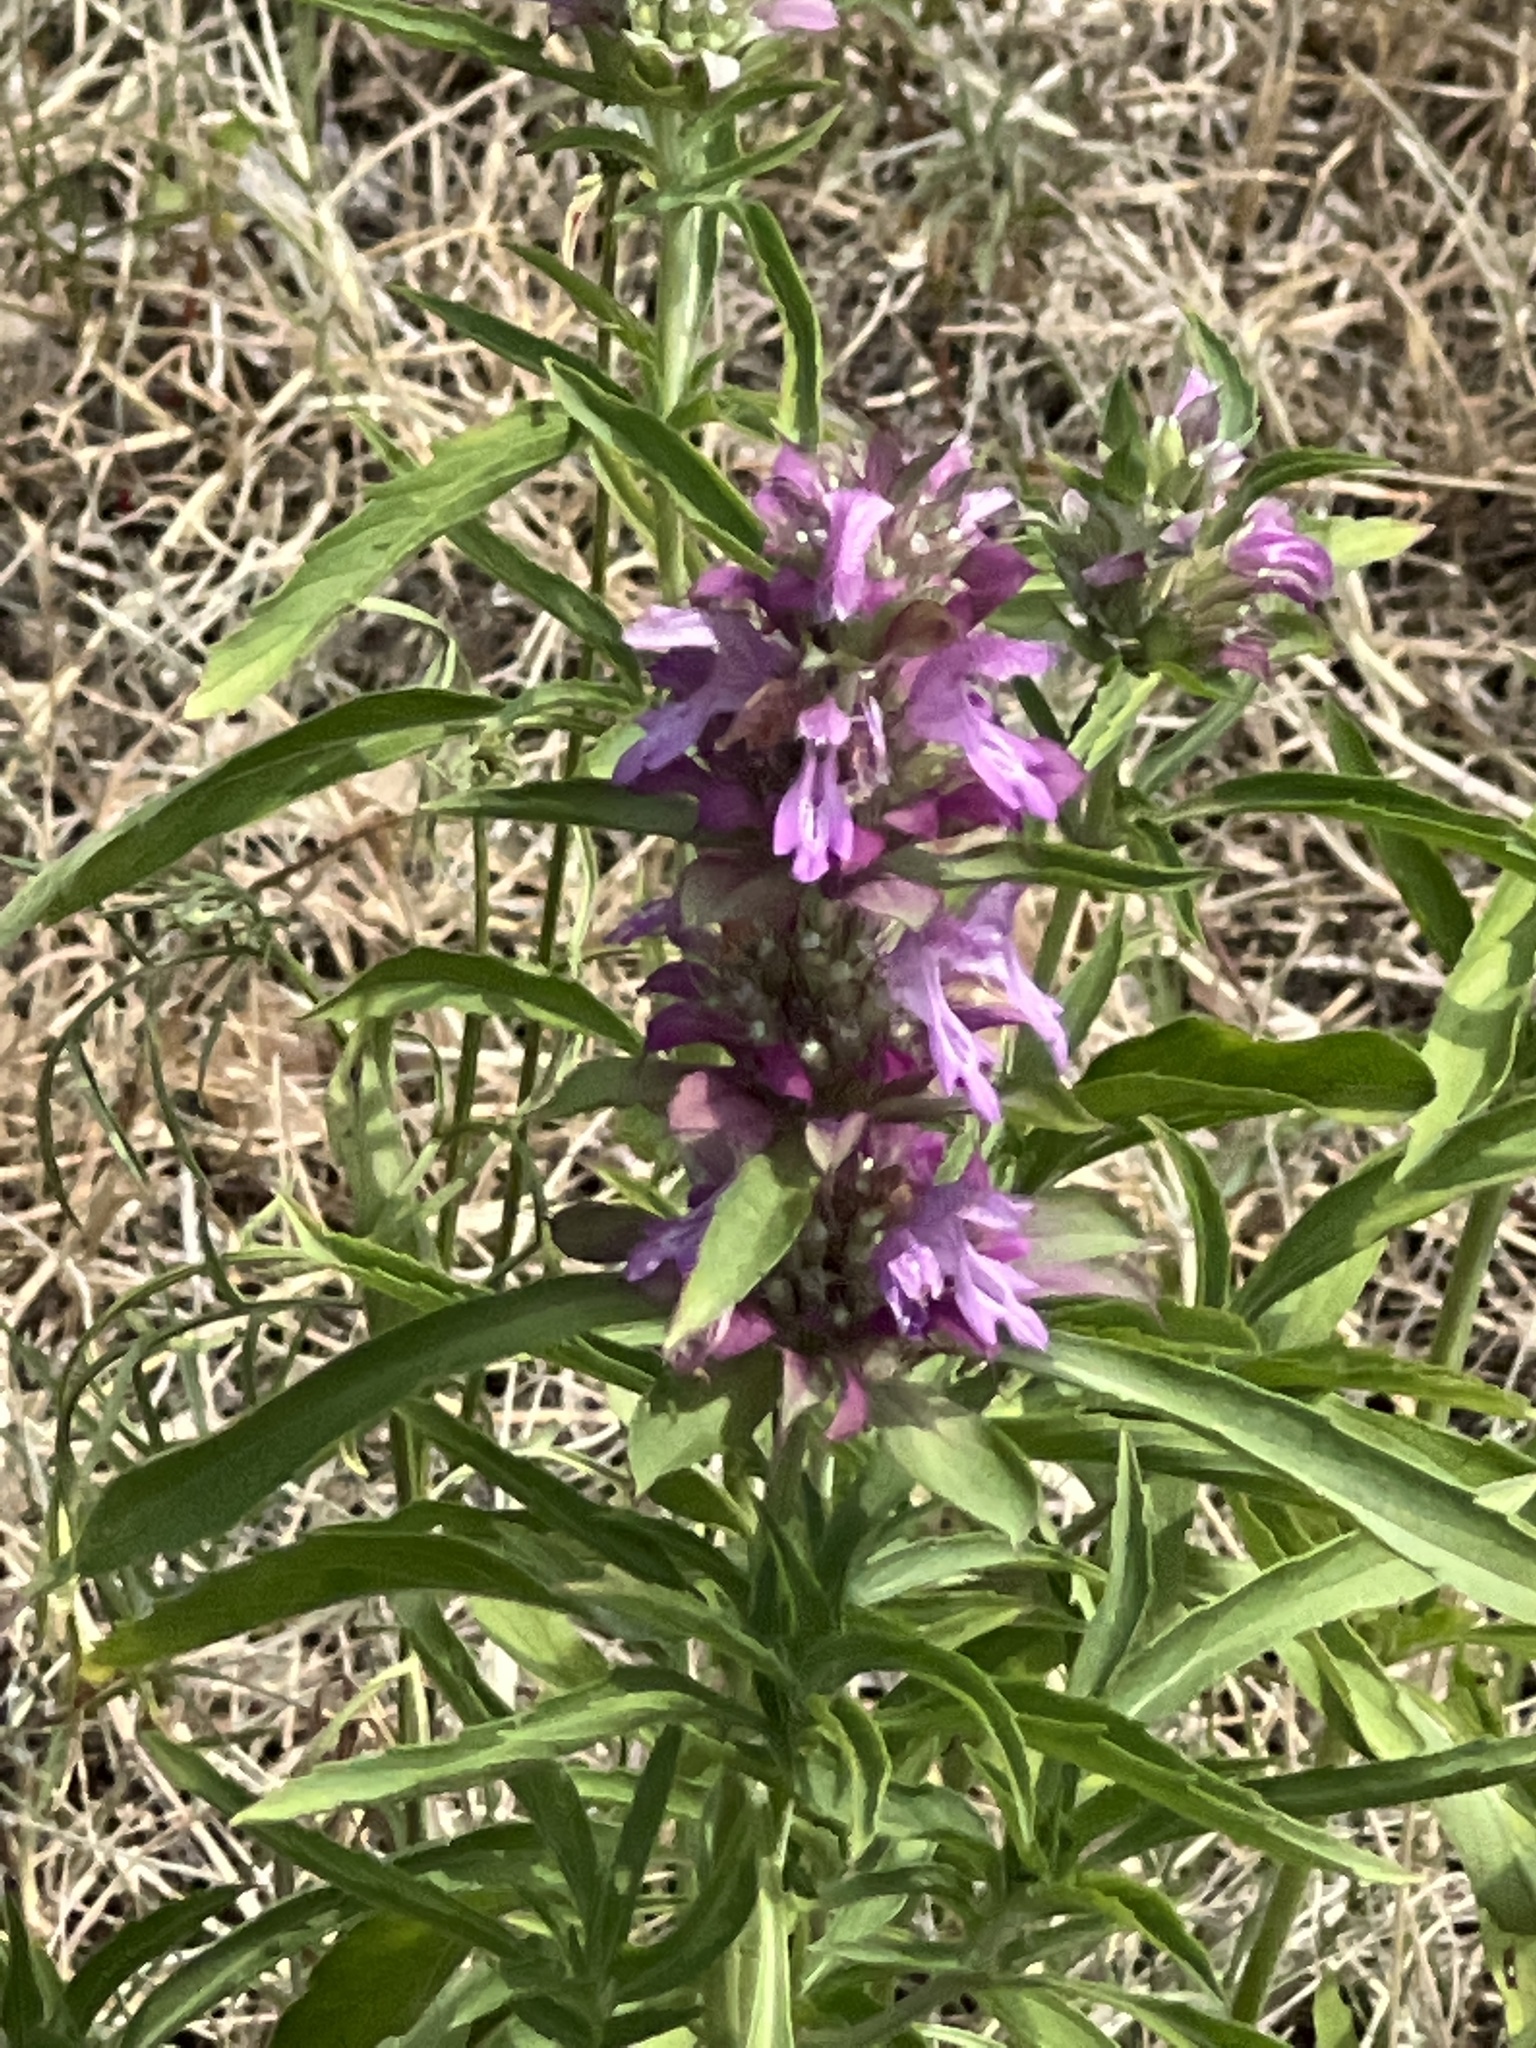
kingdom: Plantae
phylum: Tracheophyta
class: Magnoliopsida
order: Lamiales
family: Lamiaceae
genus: Monarda
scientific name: Monarda citriodora
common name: Lemon beebalm
